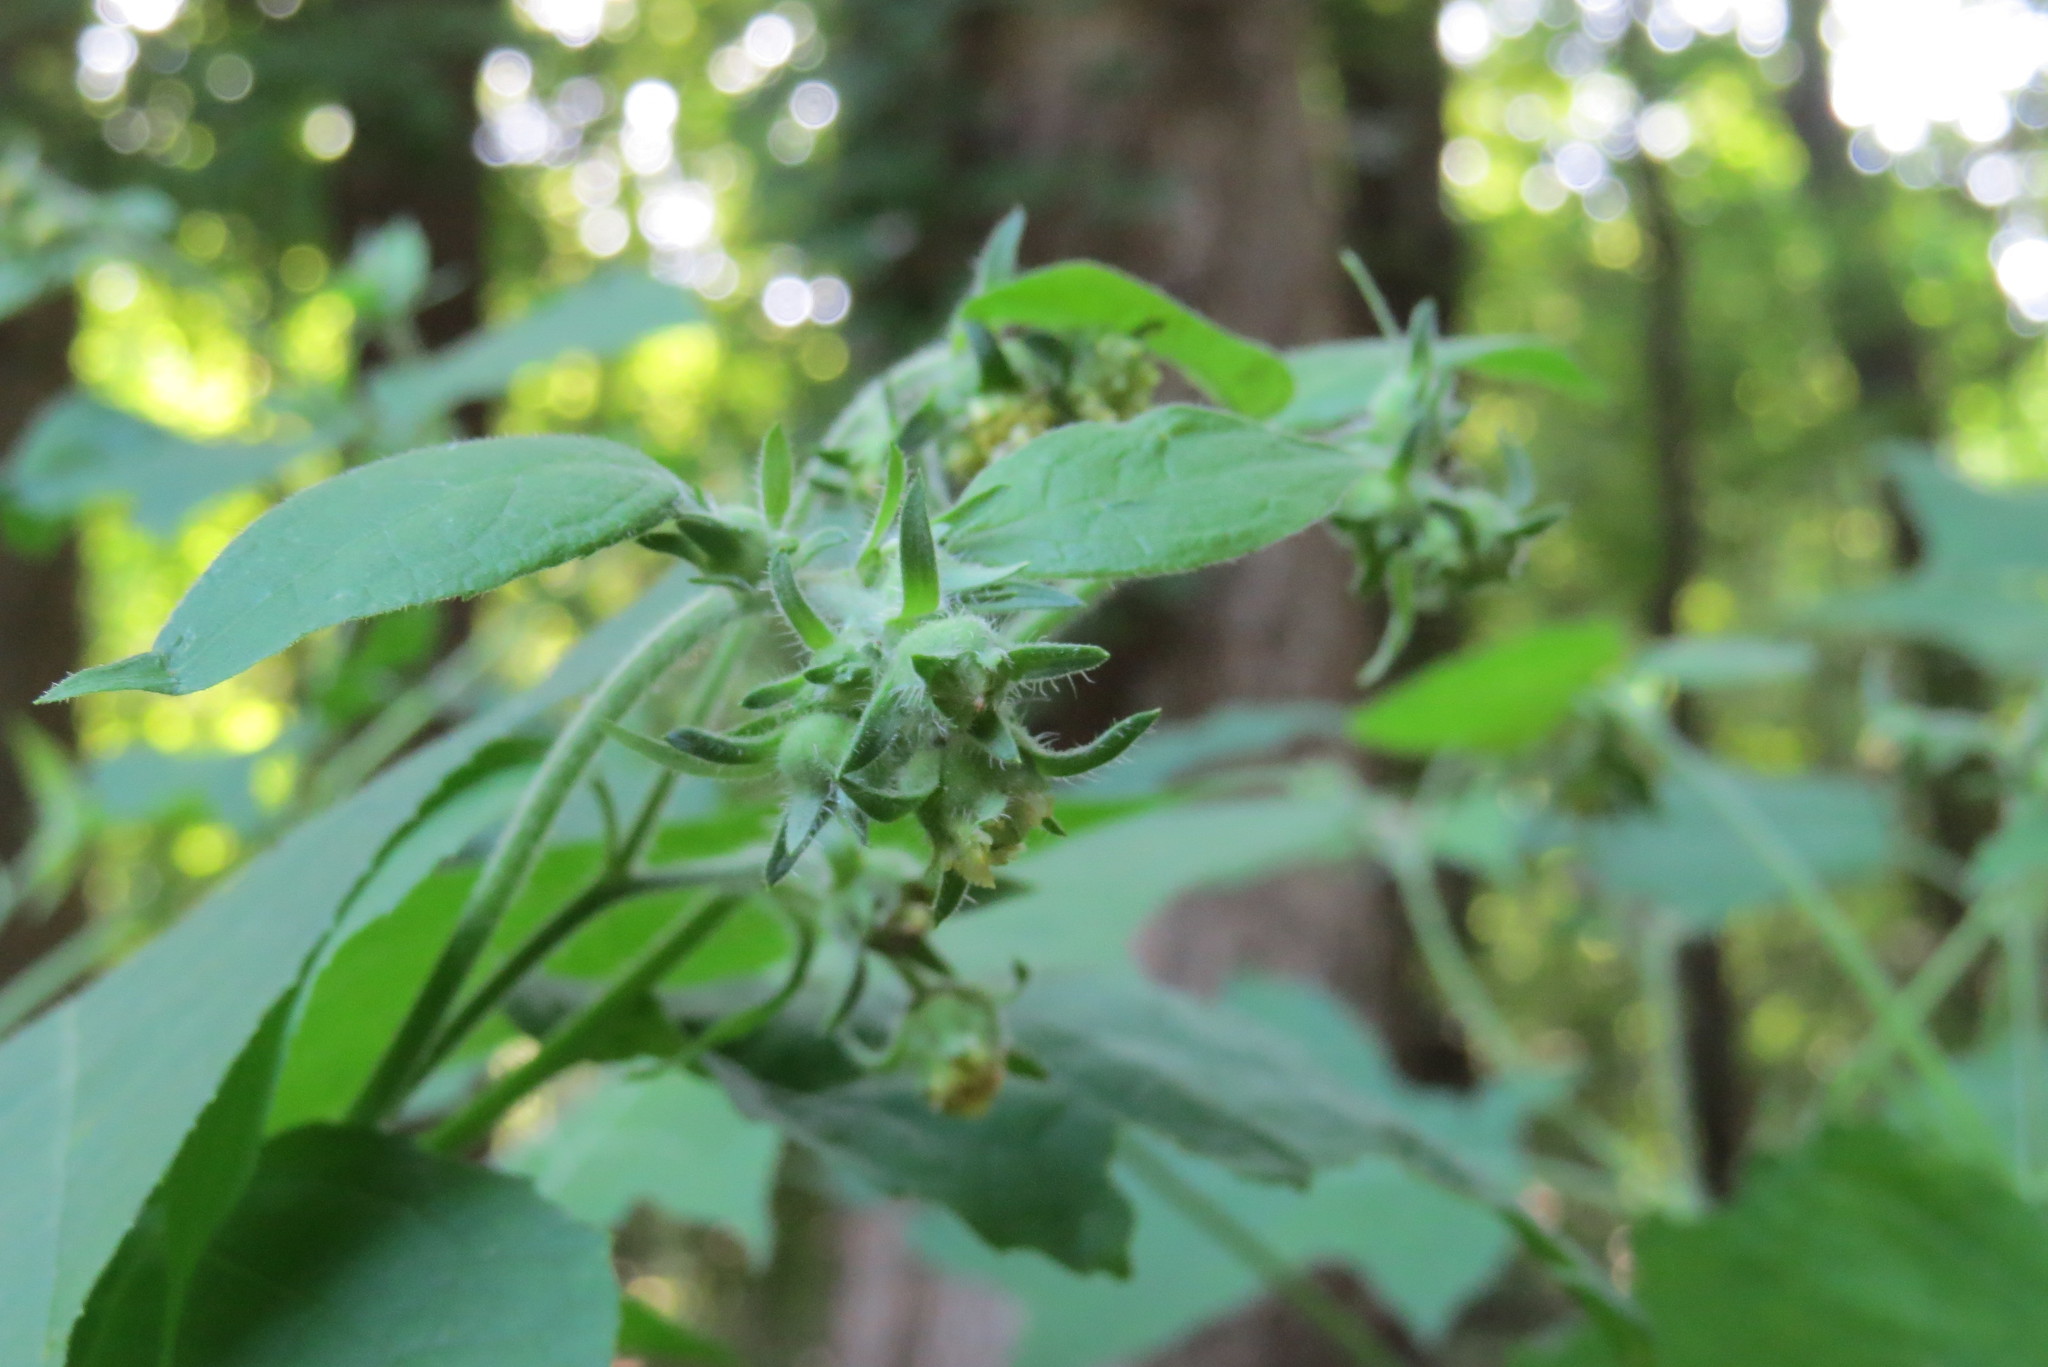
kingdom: Plantae
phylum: Tracheophyta
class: Magnoliopsida
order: Asterales
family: Asteraceae
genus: Polymnia
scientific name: Polymnia canadensis
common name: Pale-flowered leafcup
